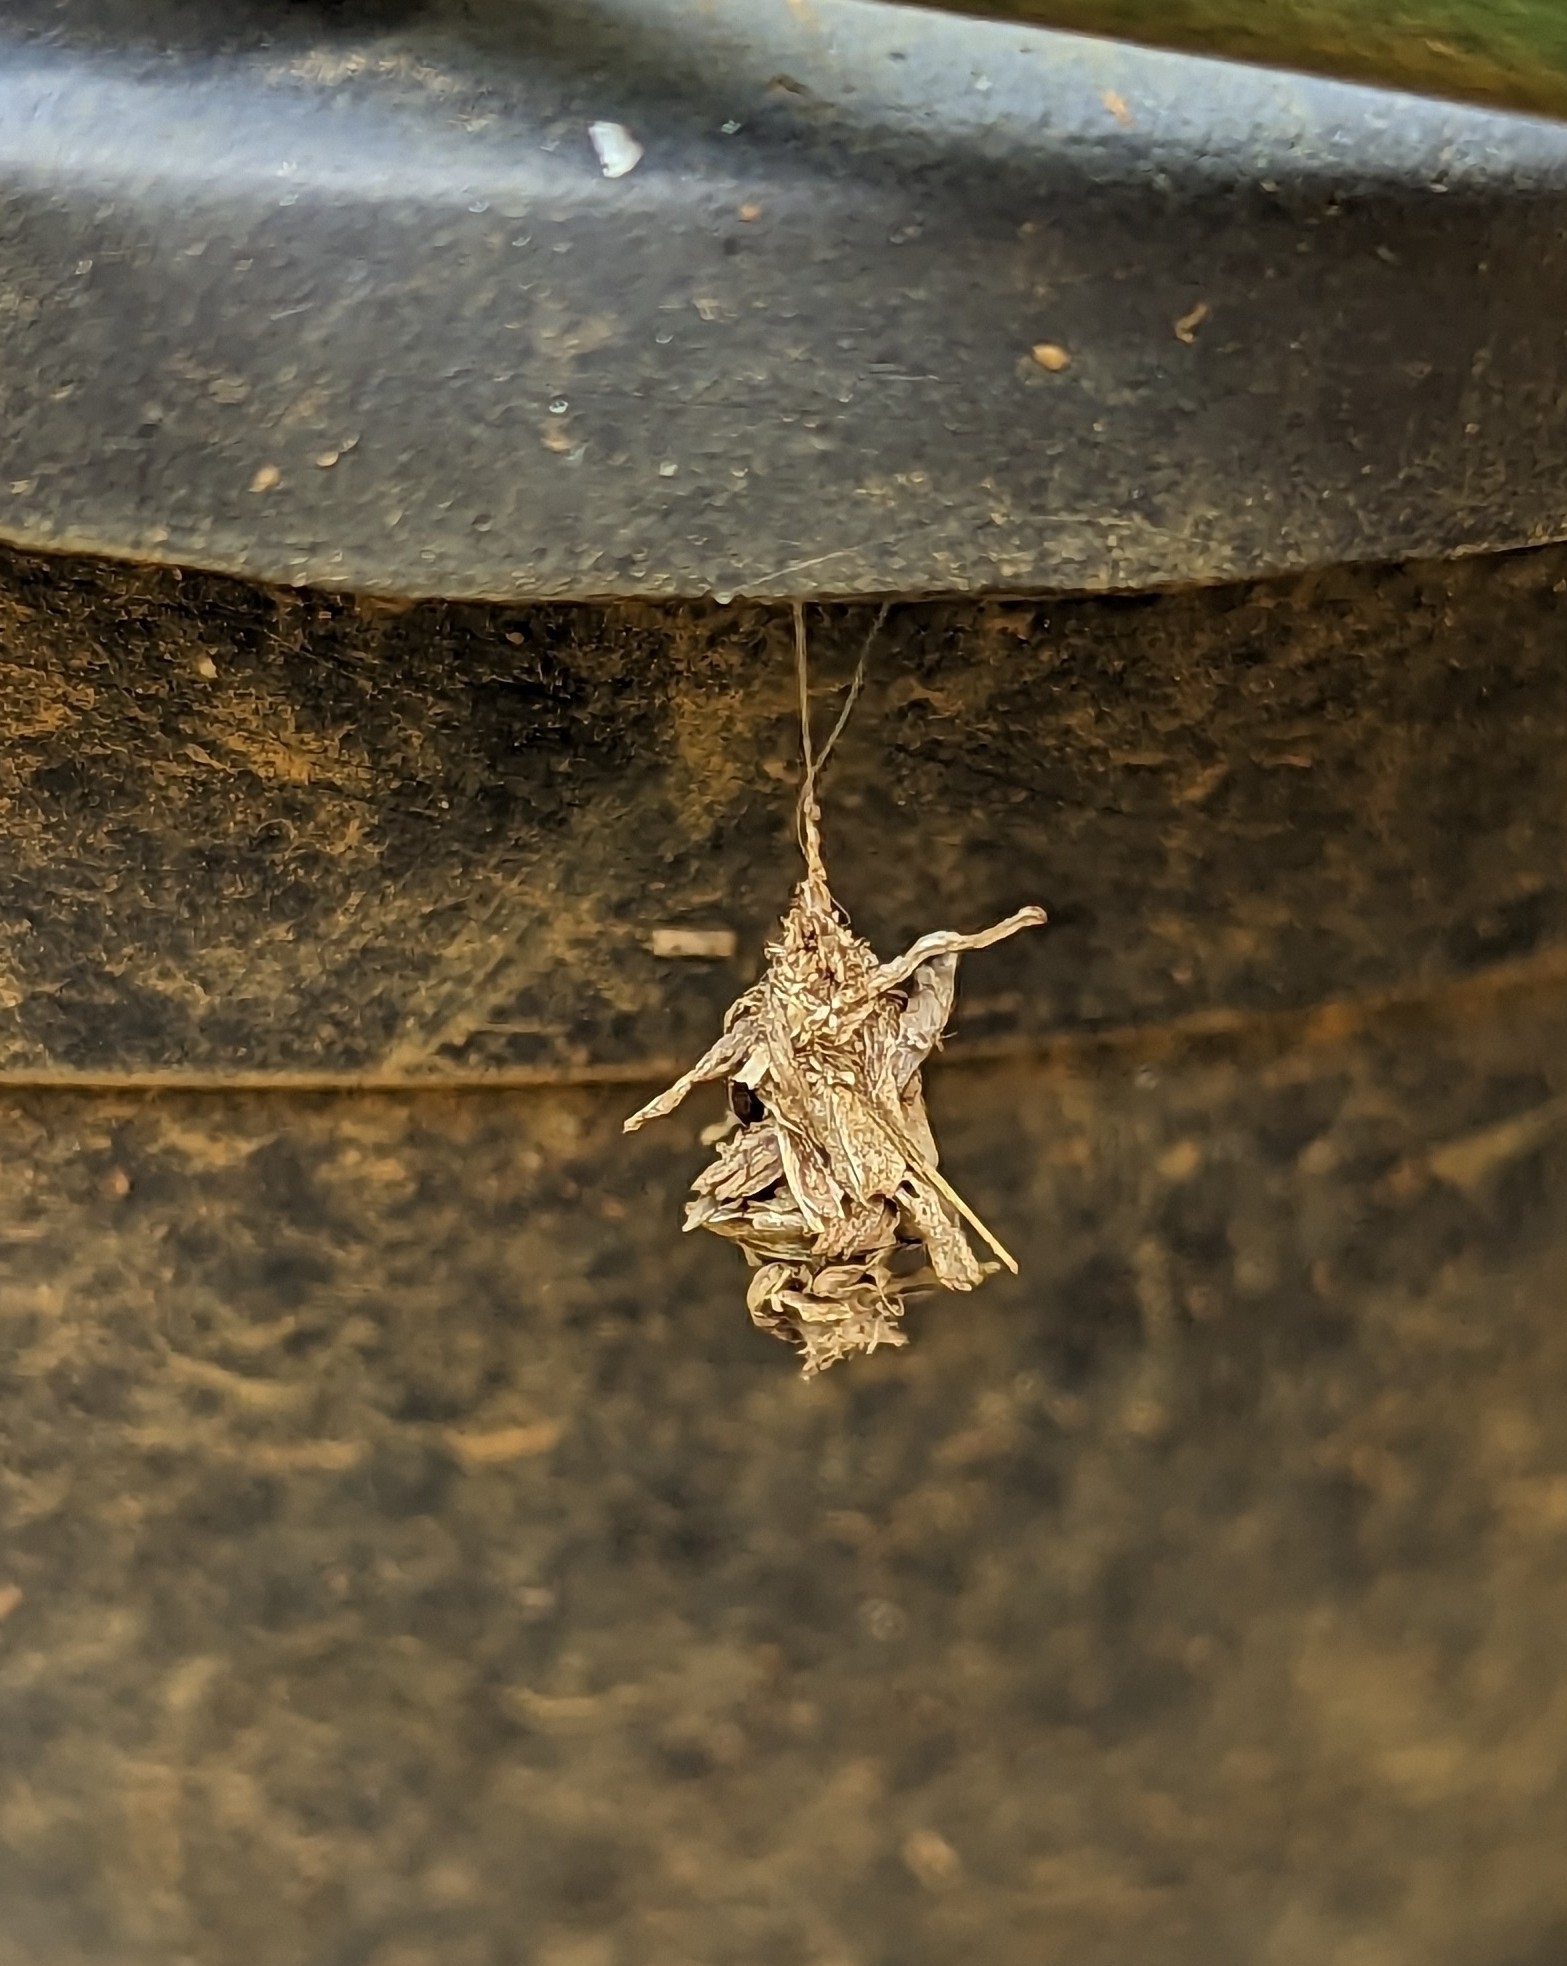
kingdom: Animalia
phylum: Arthropoda
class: Insecta
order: Lepidoptera
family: Psychidae
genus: Brachycyttarus
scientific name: Brachycyttarus griseus
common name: Grass bagworm
